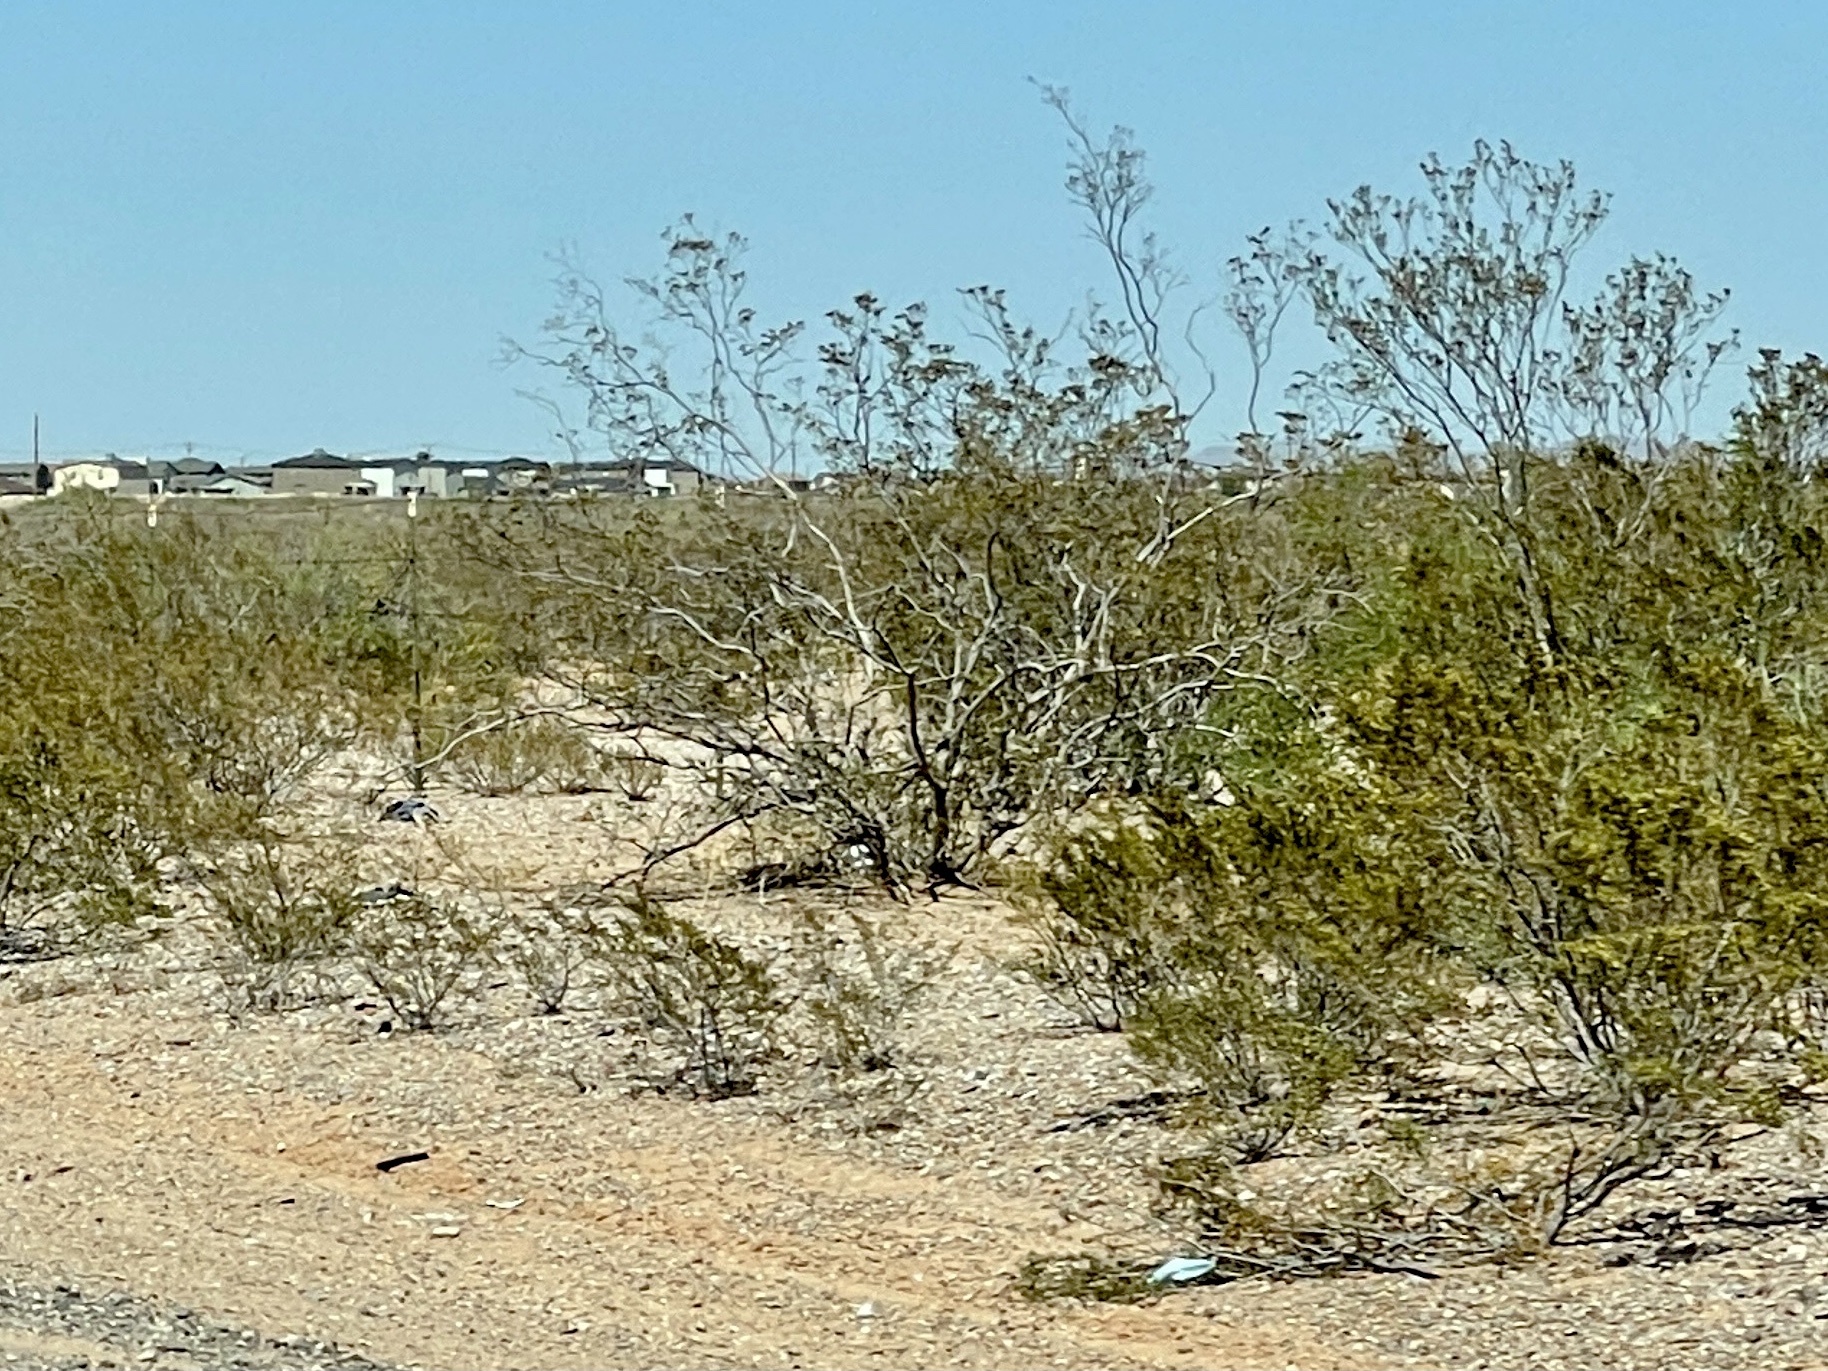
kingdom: Plantae
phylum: Tracheophyta
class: Magnoliopsida
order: Zygophyllales
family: Zygophyllaceae
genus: Larrea
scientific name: Larrea tridentata
